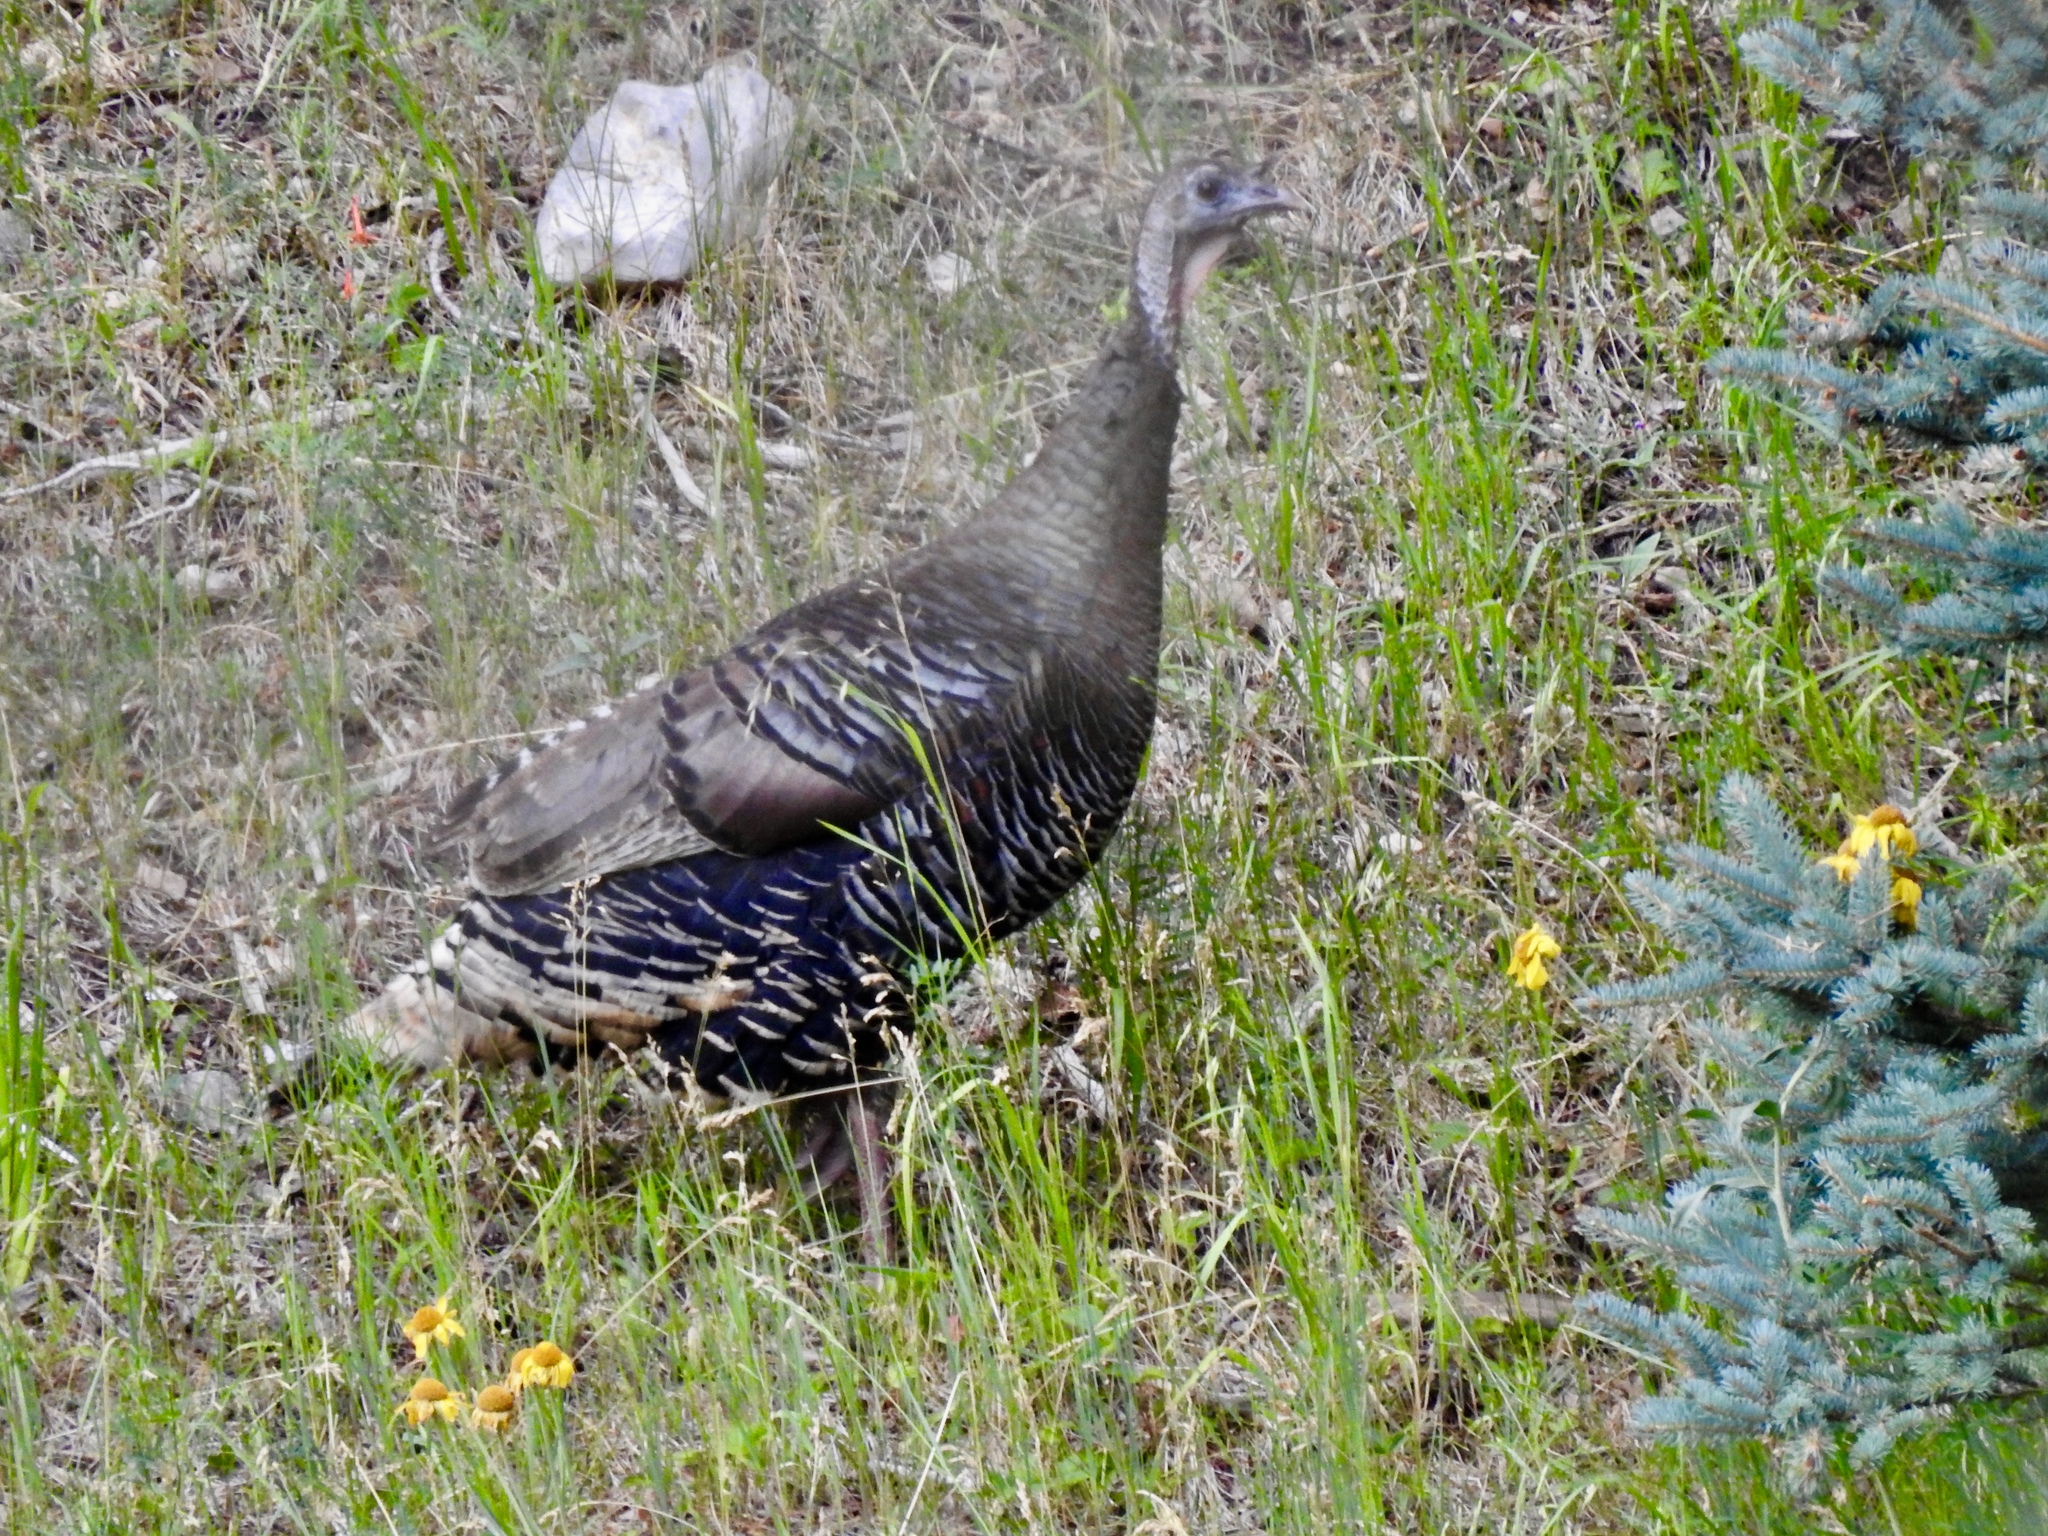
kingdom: Animalia
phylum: Chordata
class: Aves
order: Galliformes
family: Phasianidae
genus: Meleagris
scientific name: Meleagris gallopavo
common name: Wild turkey
